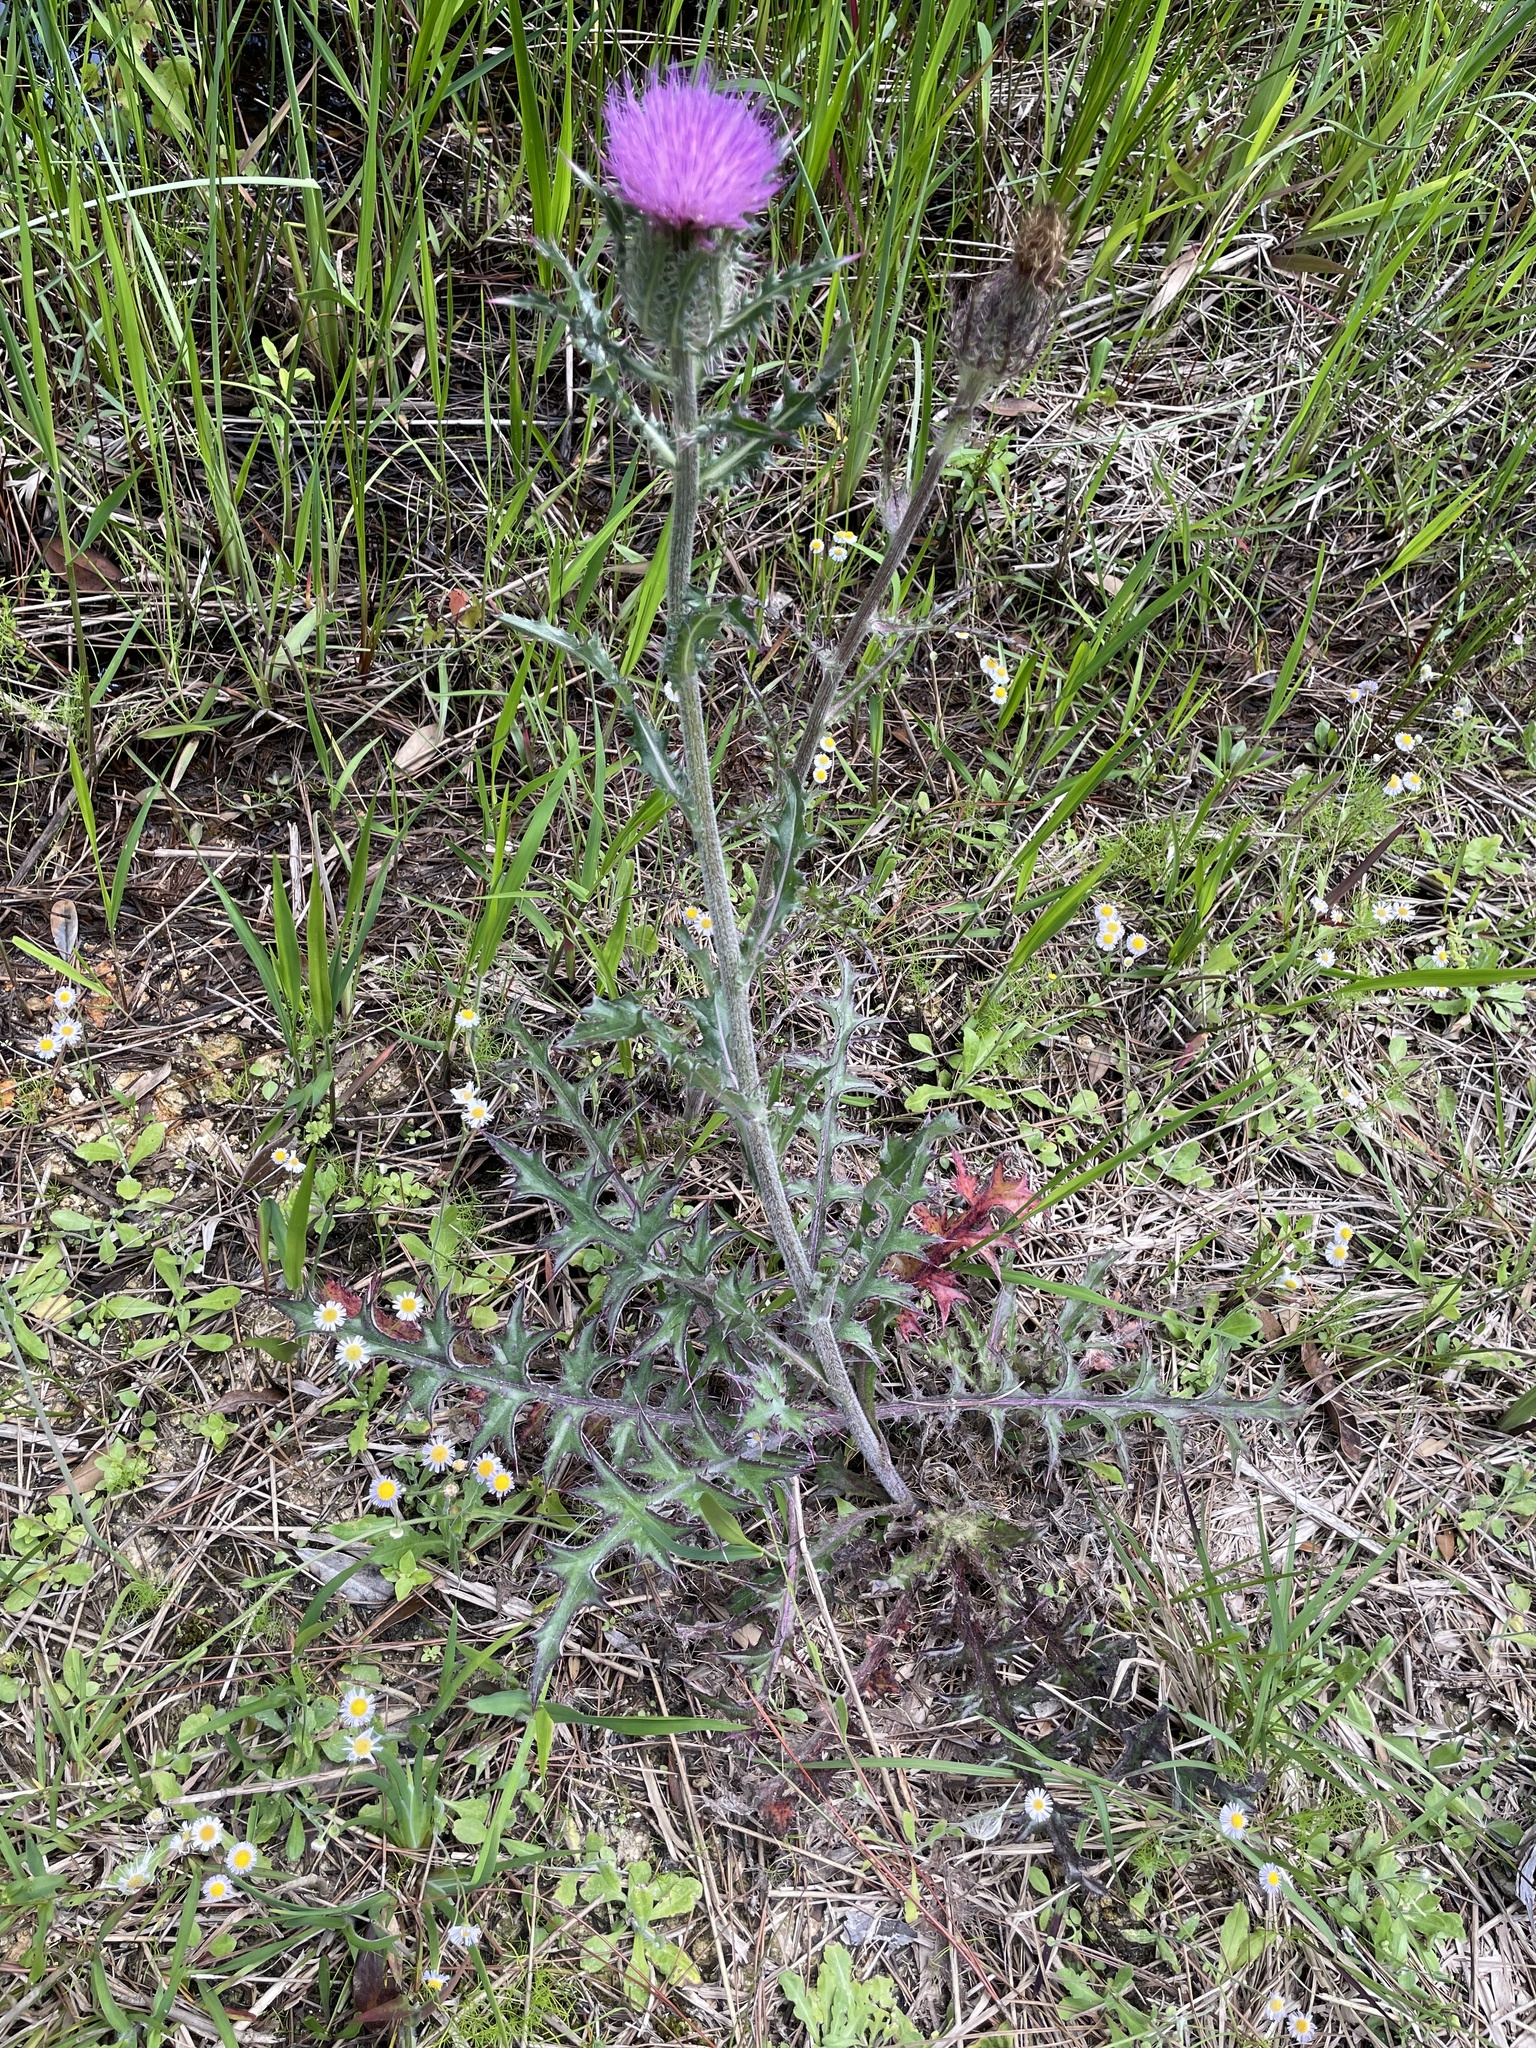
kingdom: Plantae
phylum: Tracheophyta
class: Magnoliopsida
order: Asterales
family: Asteraceae
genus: Cirsium
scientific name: Cirsium horridulum
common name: Bristly thistle
